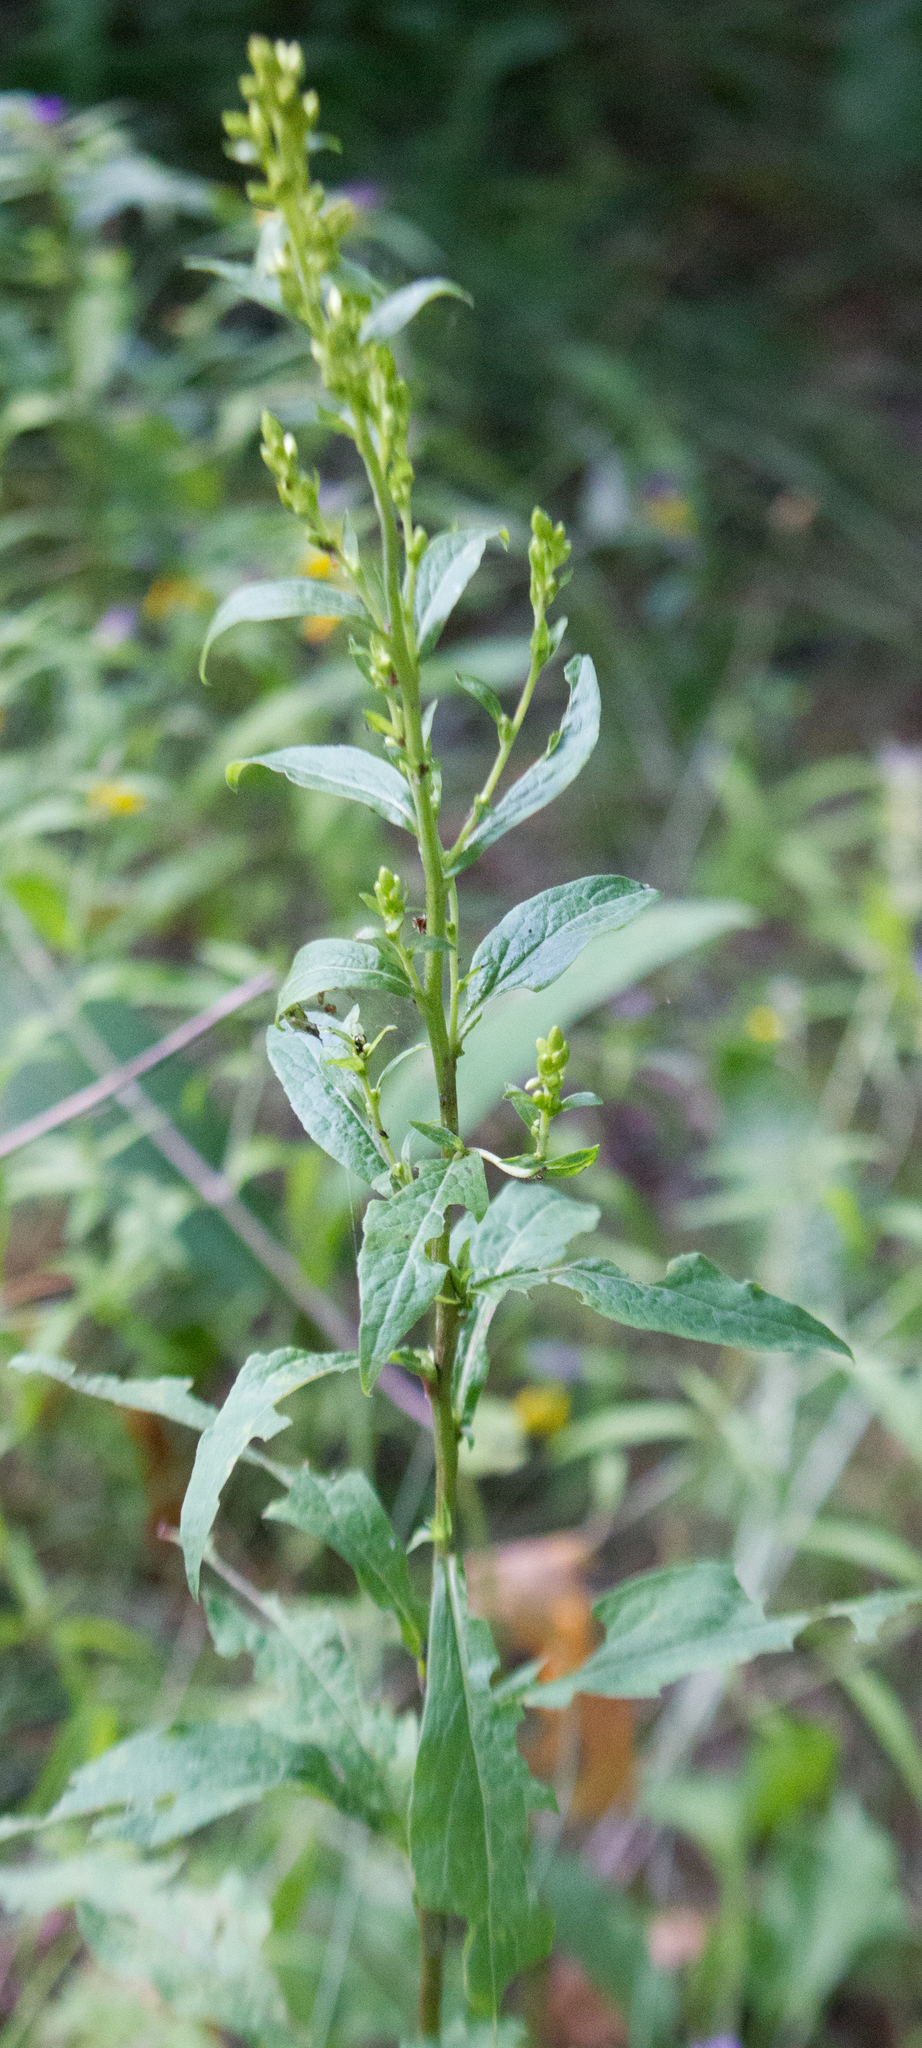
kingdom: Plantae
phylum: Tracheophyta
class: Magnoliopsida
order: Asterales
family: Asteraceae
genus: Solidago
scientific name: Solidago virgaurea
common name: Goldenrod
